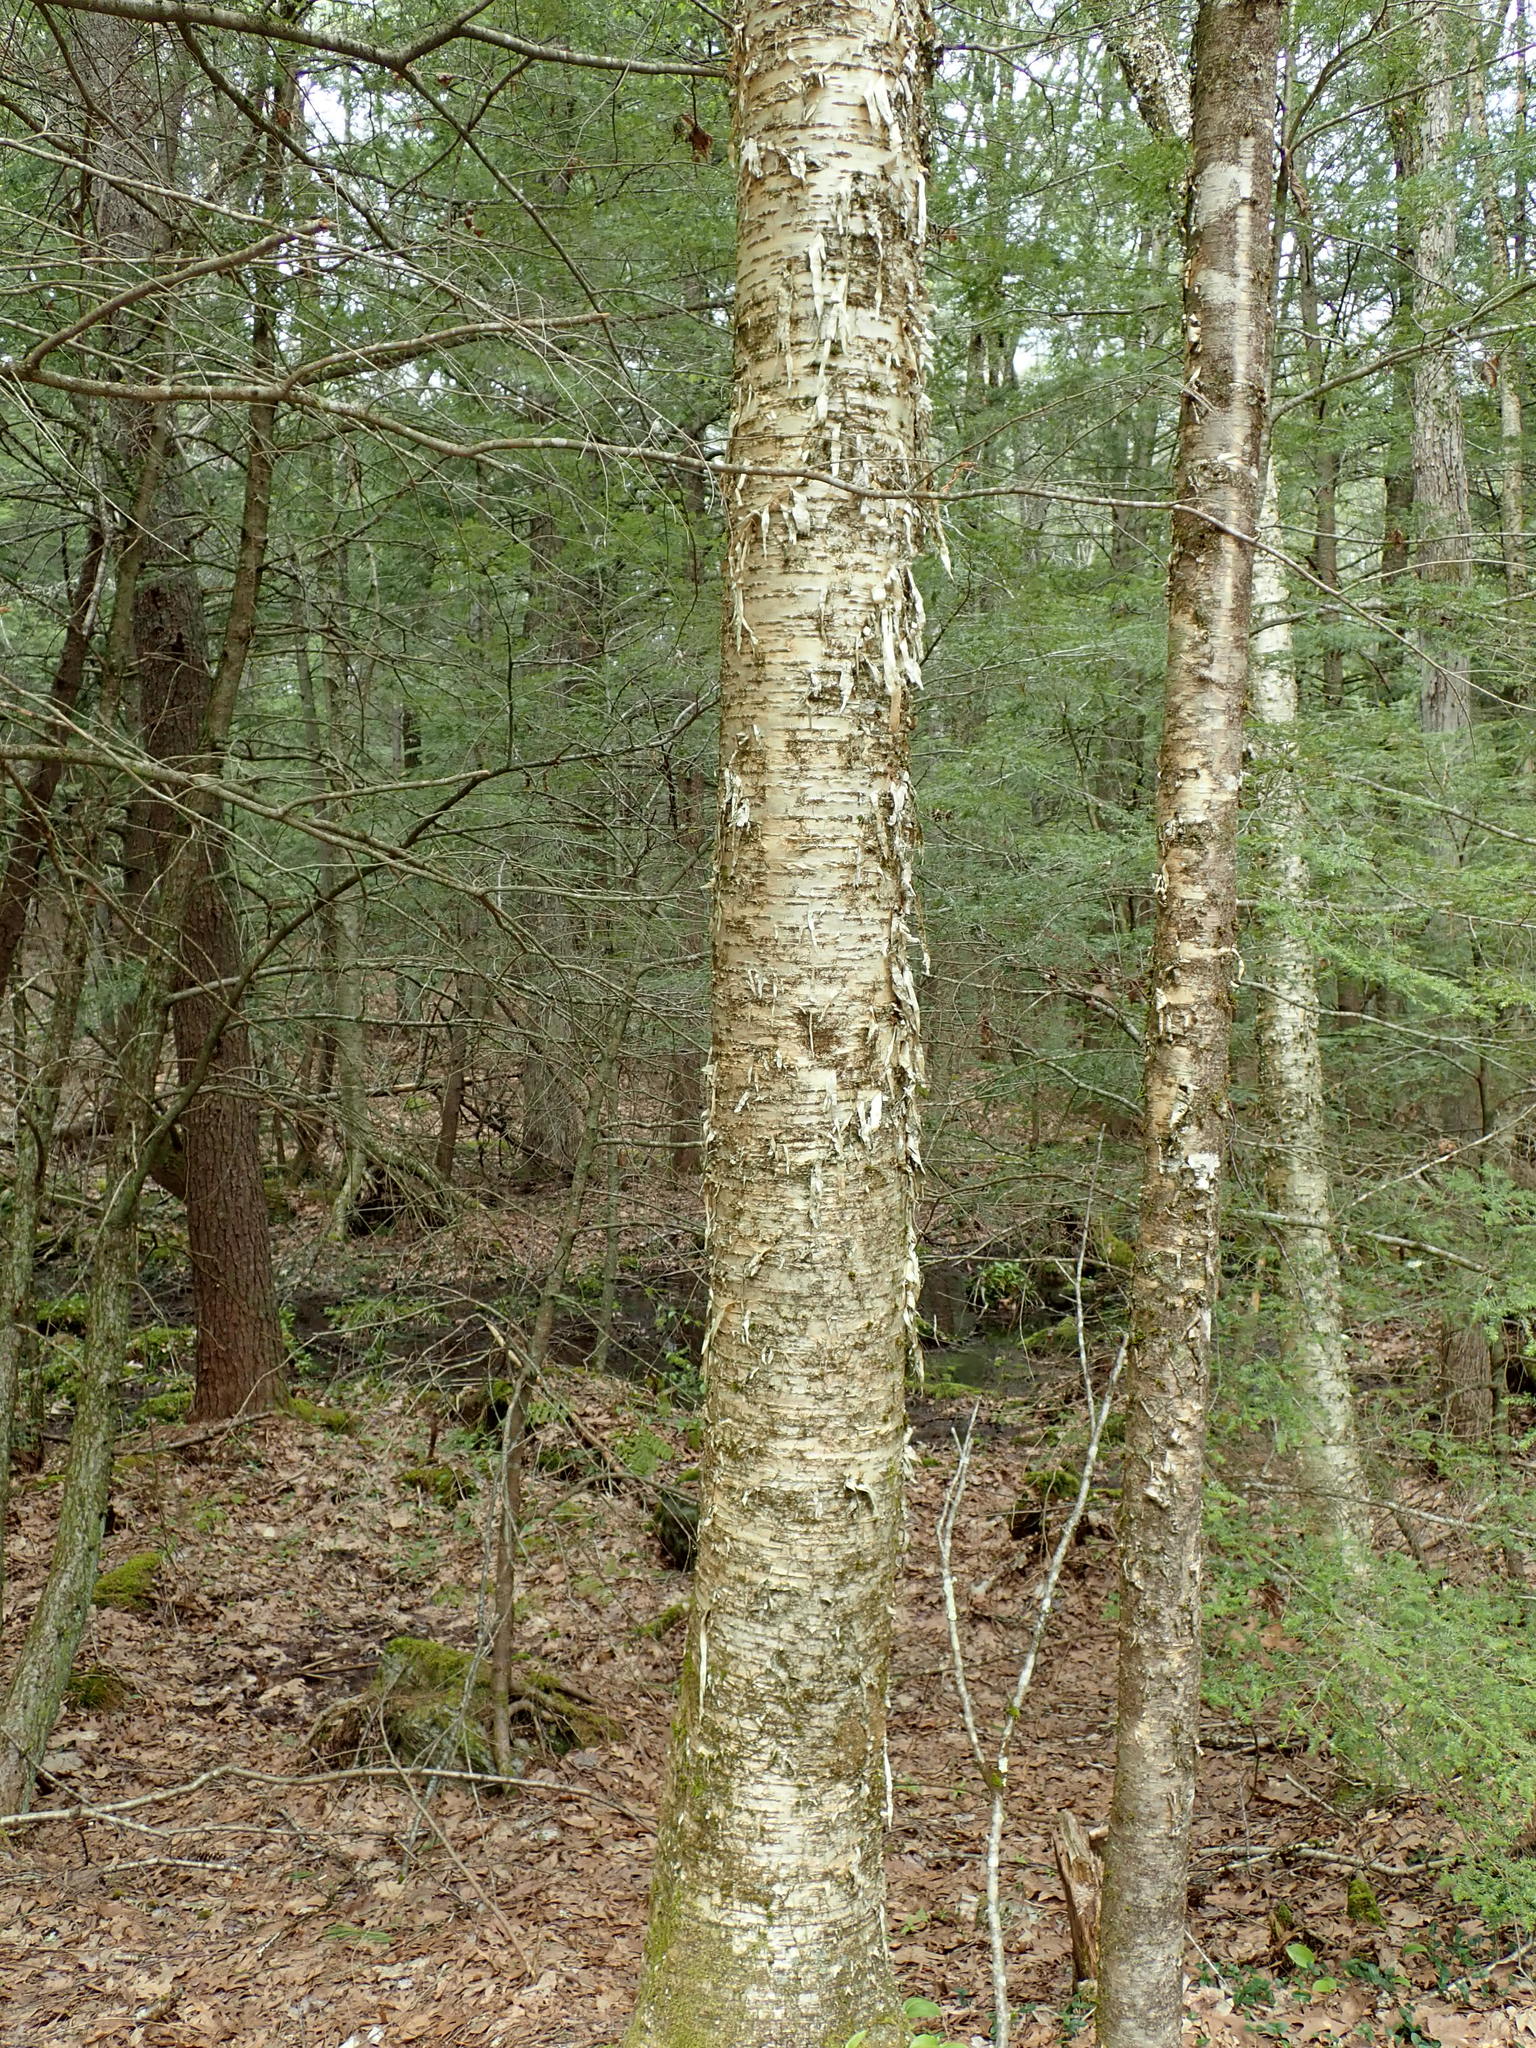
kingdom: Plantae
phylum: Tracheophyta
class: Magnoliopsida
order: Fagales
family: Betulaceae
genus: Betula
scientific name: Betula alleghaniensis
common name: Yellow birch
